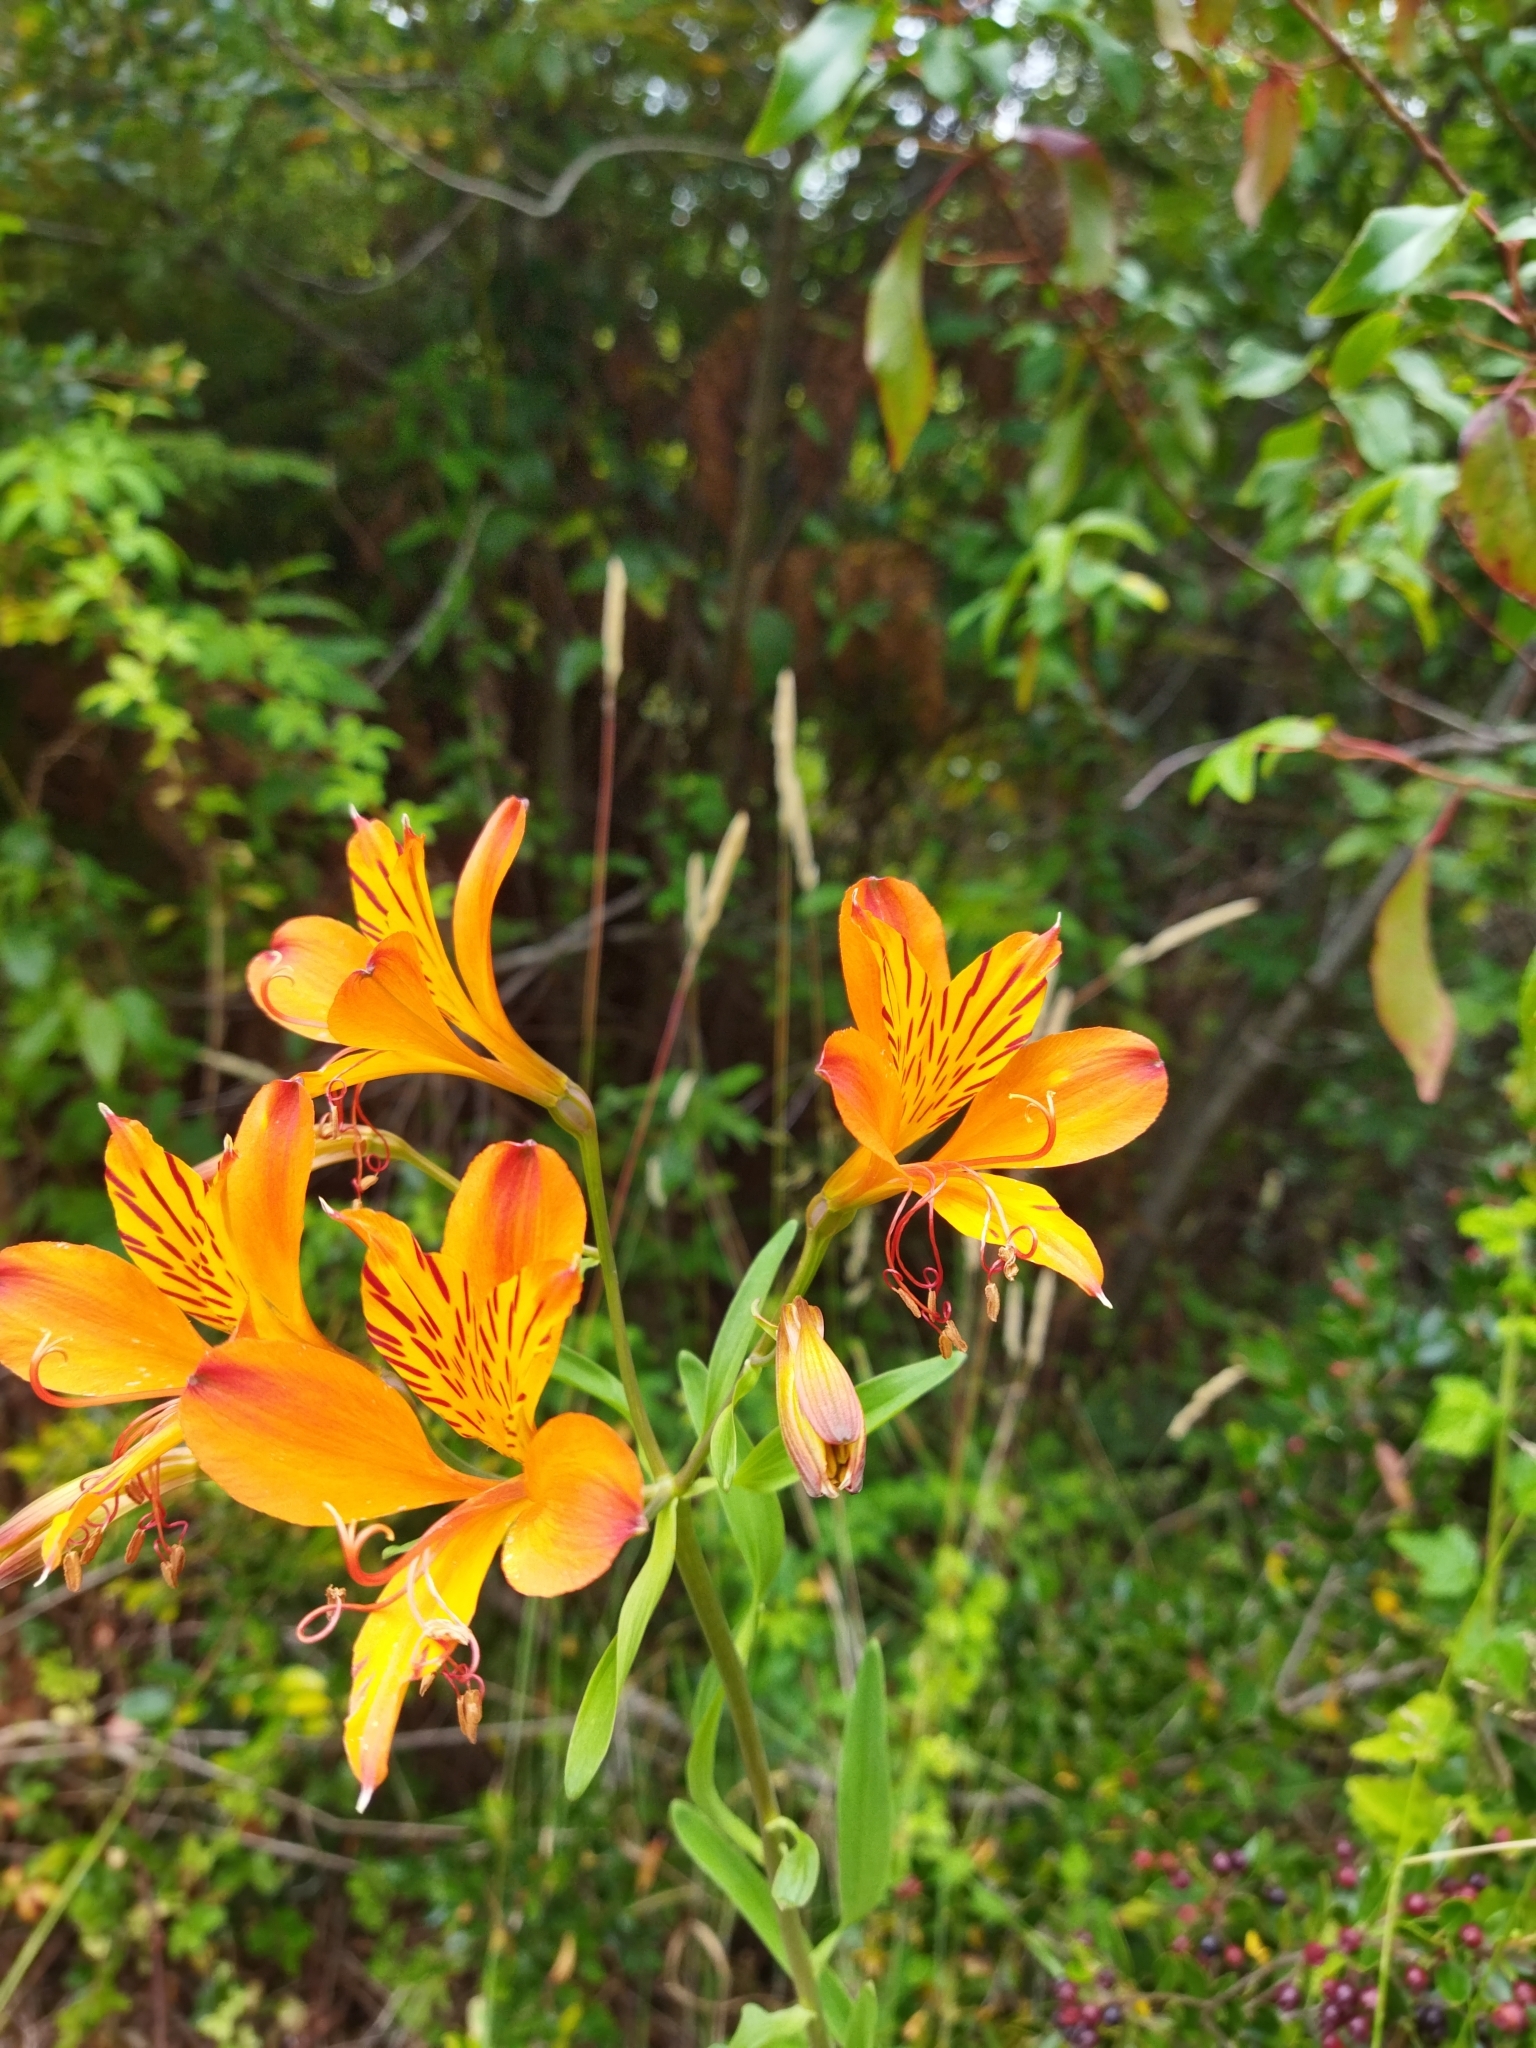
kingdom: Plantae
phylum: Tracheophyta
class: Liliopsida
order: Liliales
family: Alstroemeriaceae
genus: Alstroemeria
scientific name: Alstroemeria aurea
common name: Peruvian lily
